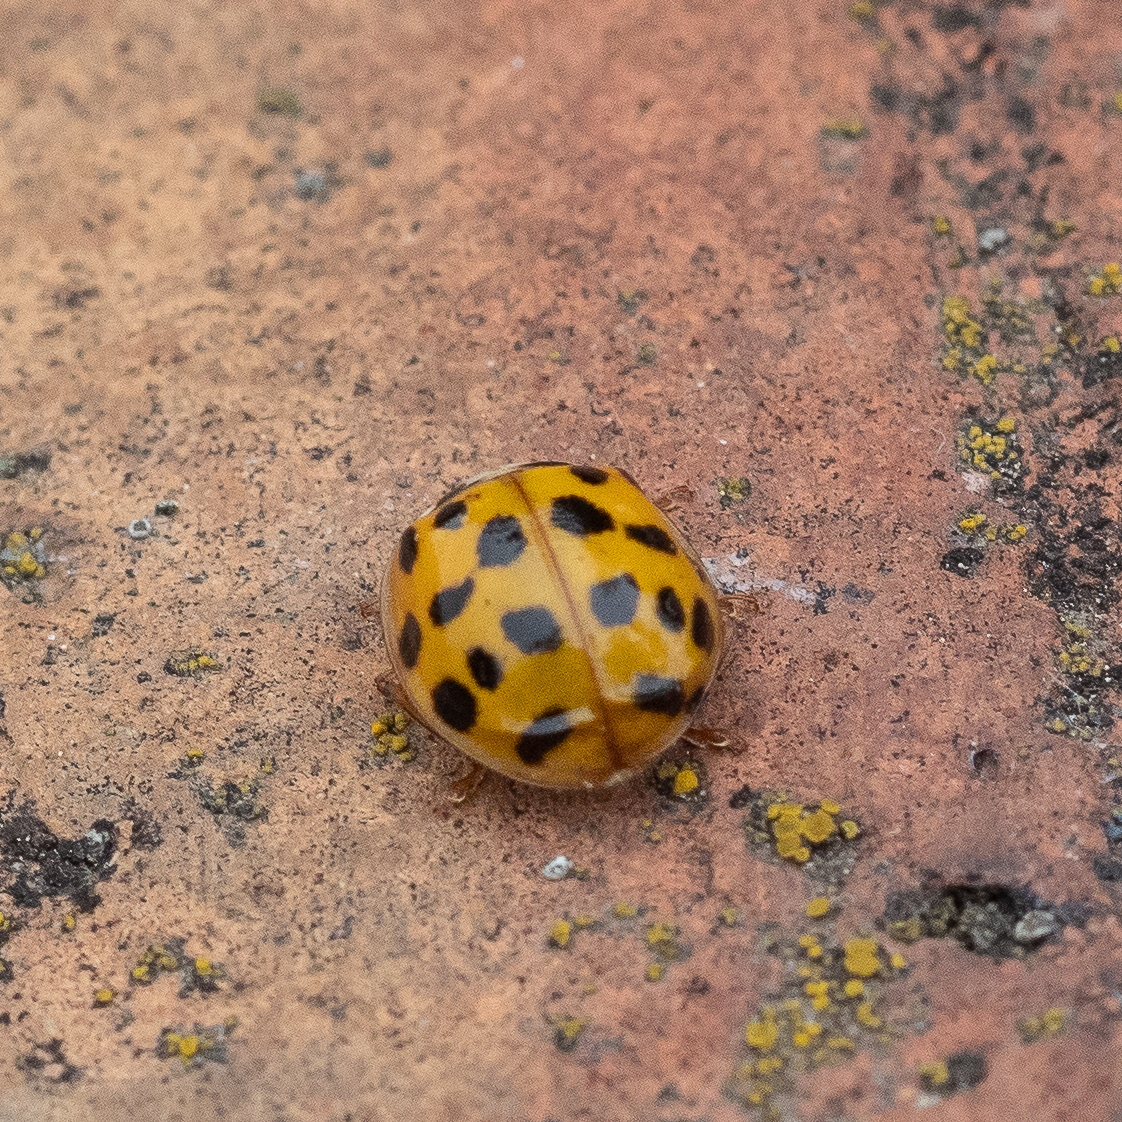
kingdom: Animalia
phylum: Arthropoda
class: Insecta
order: Coleoptera
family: Coccinellidae
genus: Harmonia
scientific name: Harmonia axyridis
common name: Harlequin ladybird
